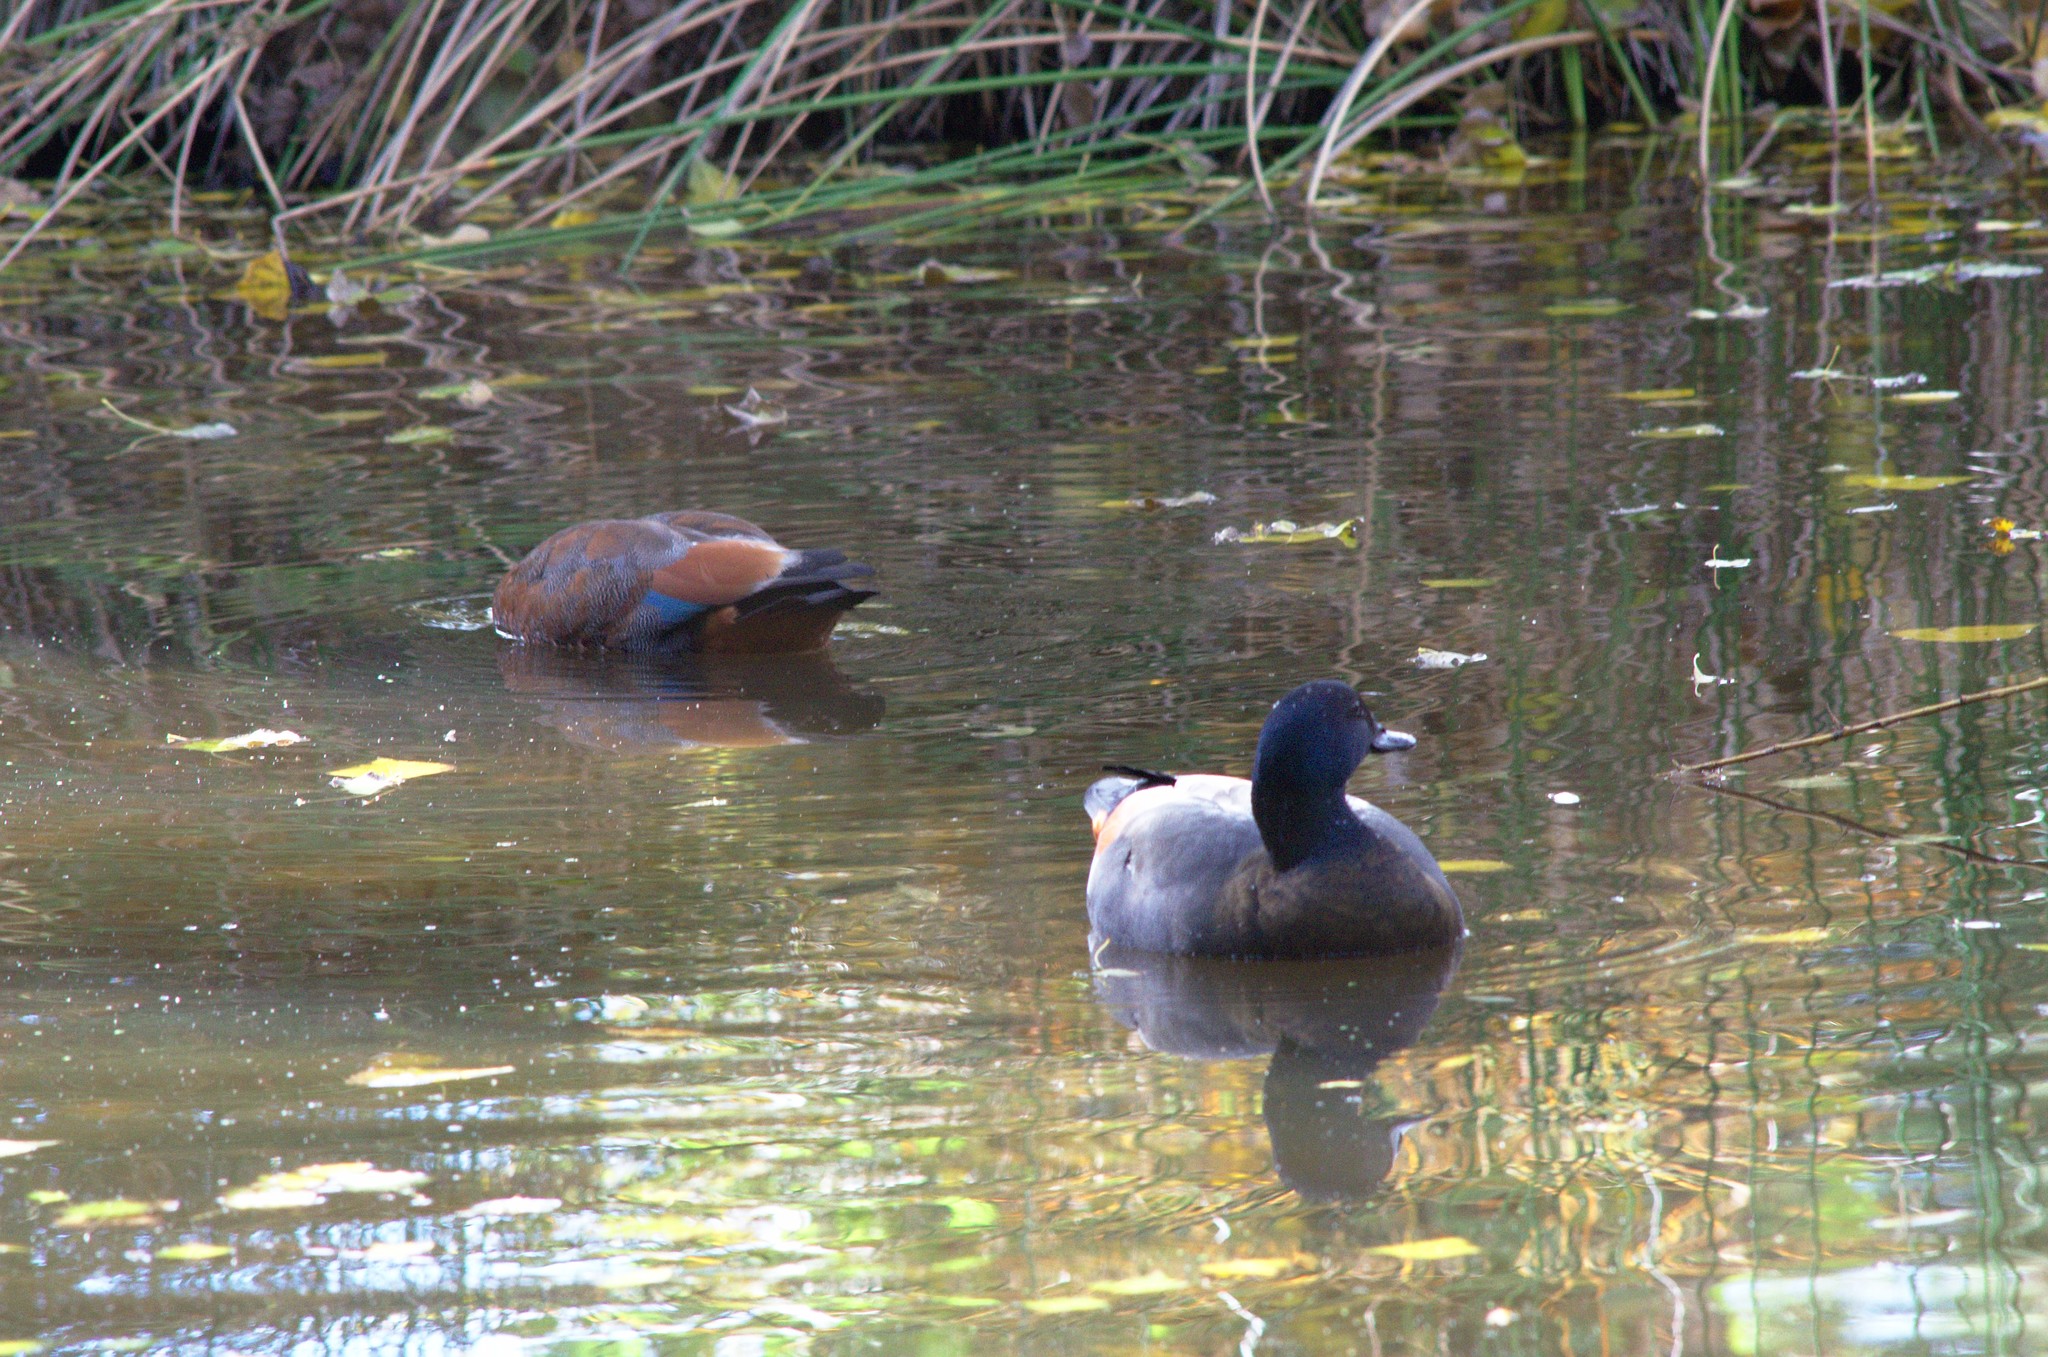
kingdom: Animalia
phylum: Chordata
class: Aves
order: Anseriformes
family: Anatidae
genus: Tadorna
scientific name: Tadorna variegata
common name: Paradise shelduck
